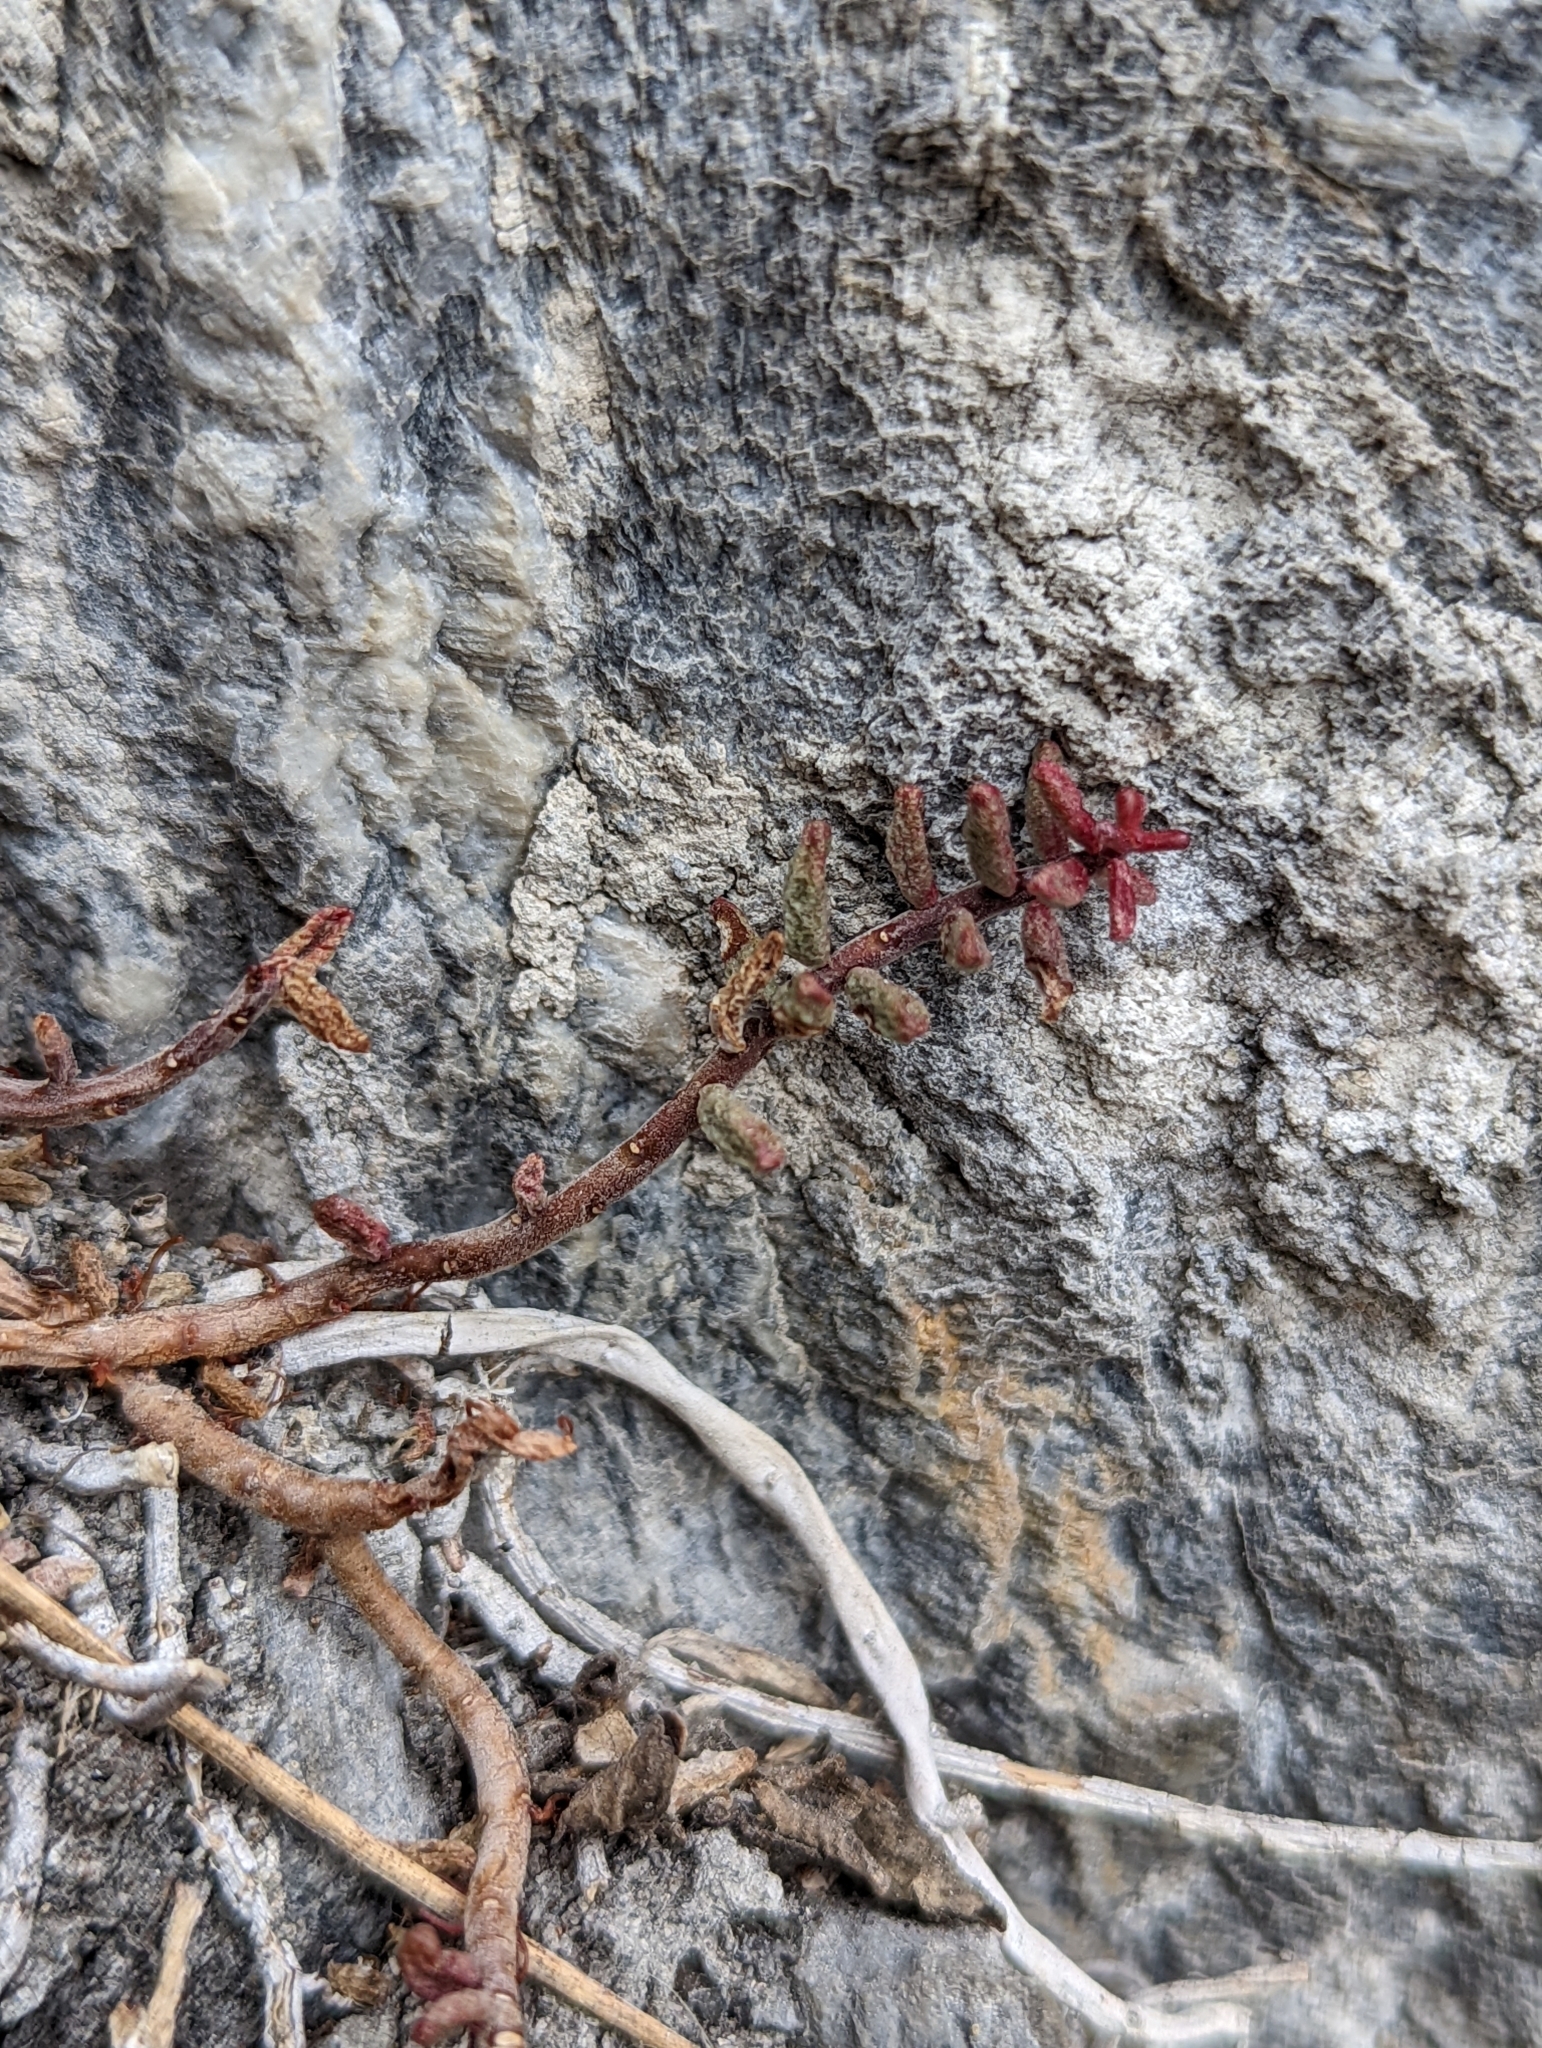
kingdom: Plantae
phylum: Tracheophyta
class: Magnoliopsida
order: Saxifragales
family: Crassulaceae
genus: Sedum
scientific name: Sedum album
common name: White stonecrop
